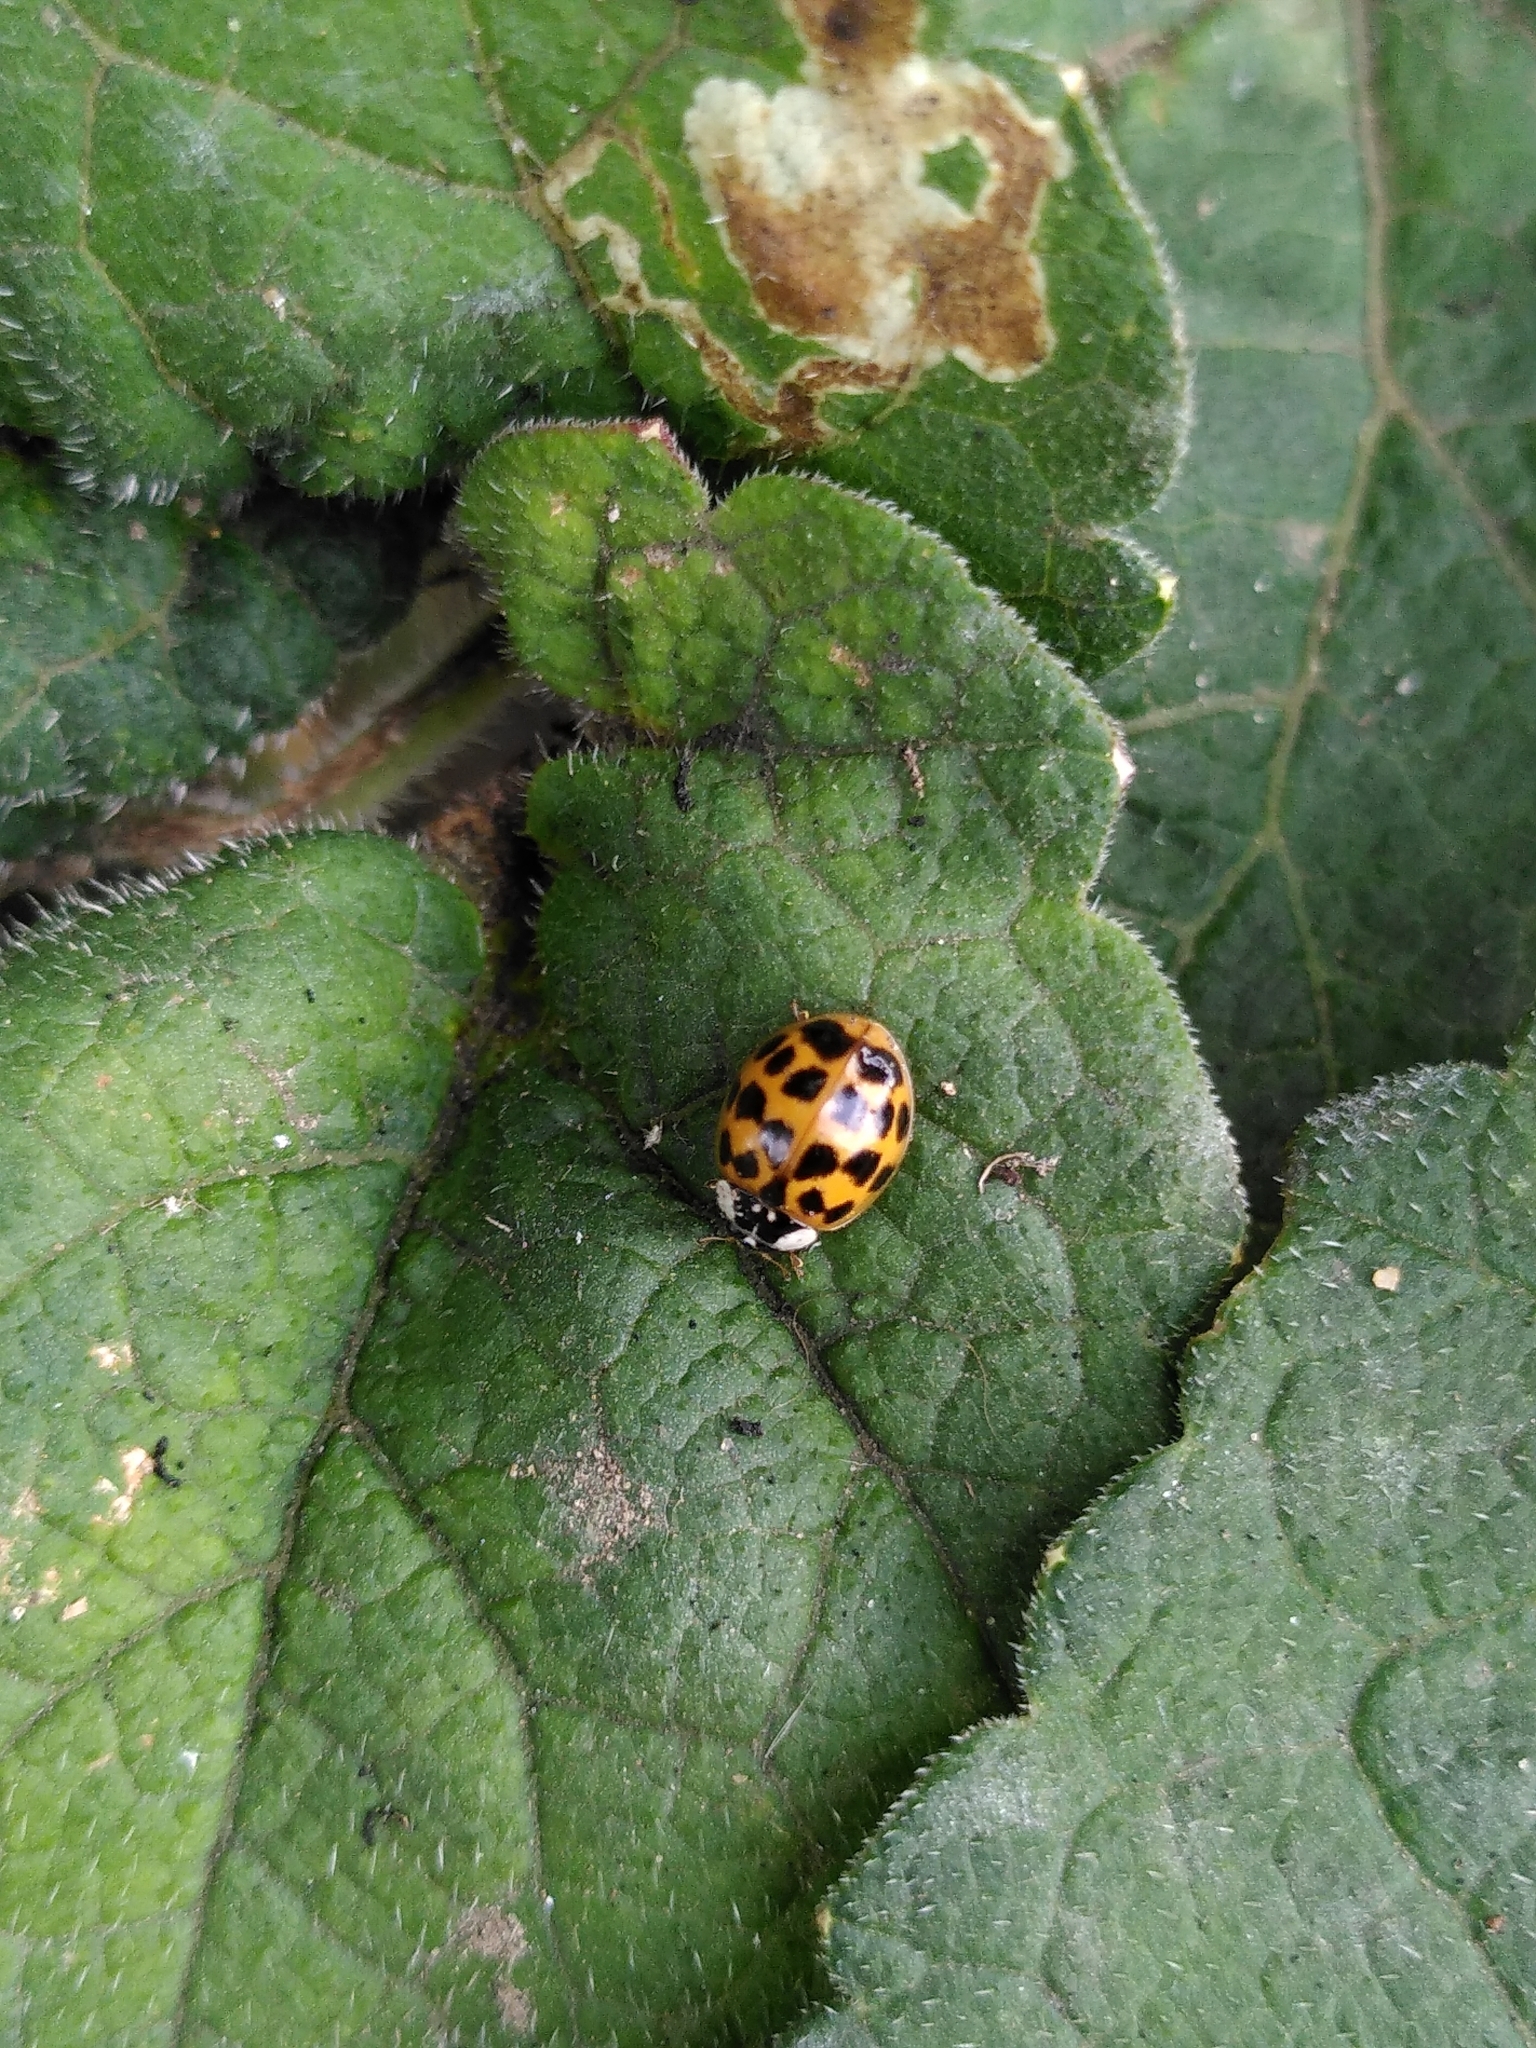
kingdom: Animalia
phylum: Arthropoda
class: Insecta
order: Coleoptera
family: Coccinellidae
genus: Harmonia
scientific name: Harmonia axyridis
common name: Harlequin ladybird
